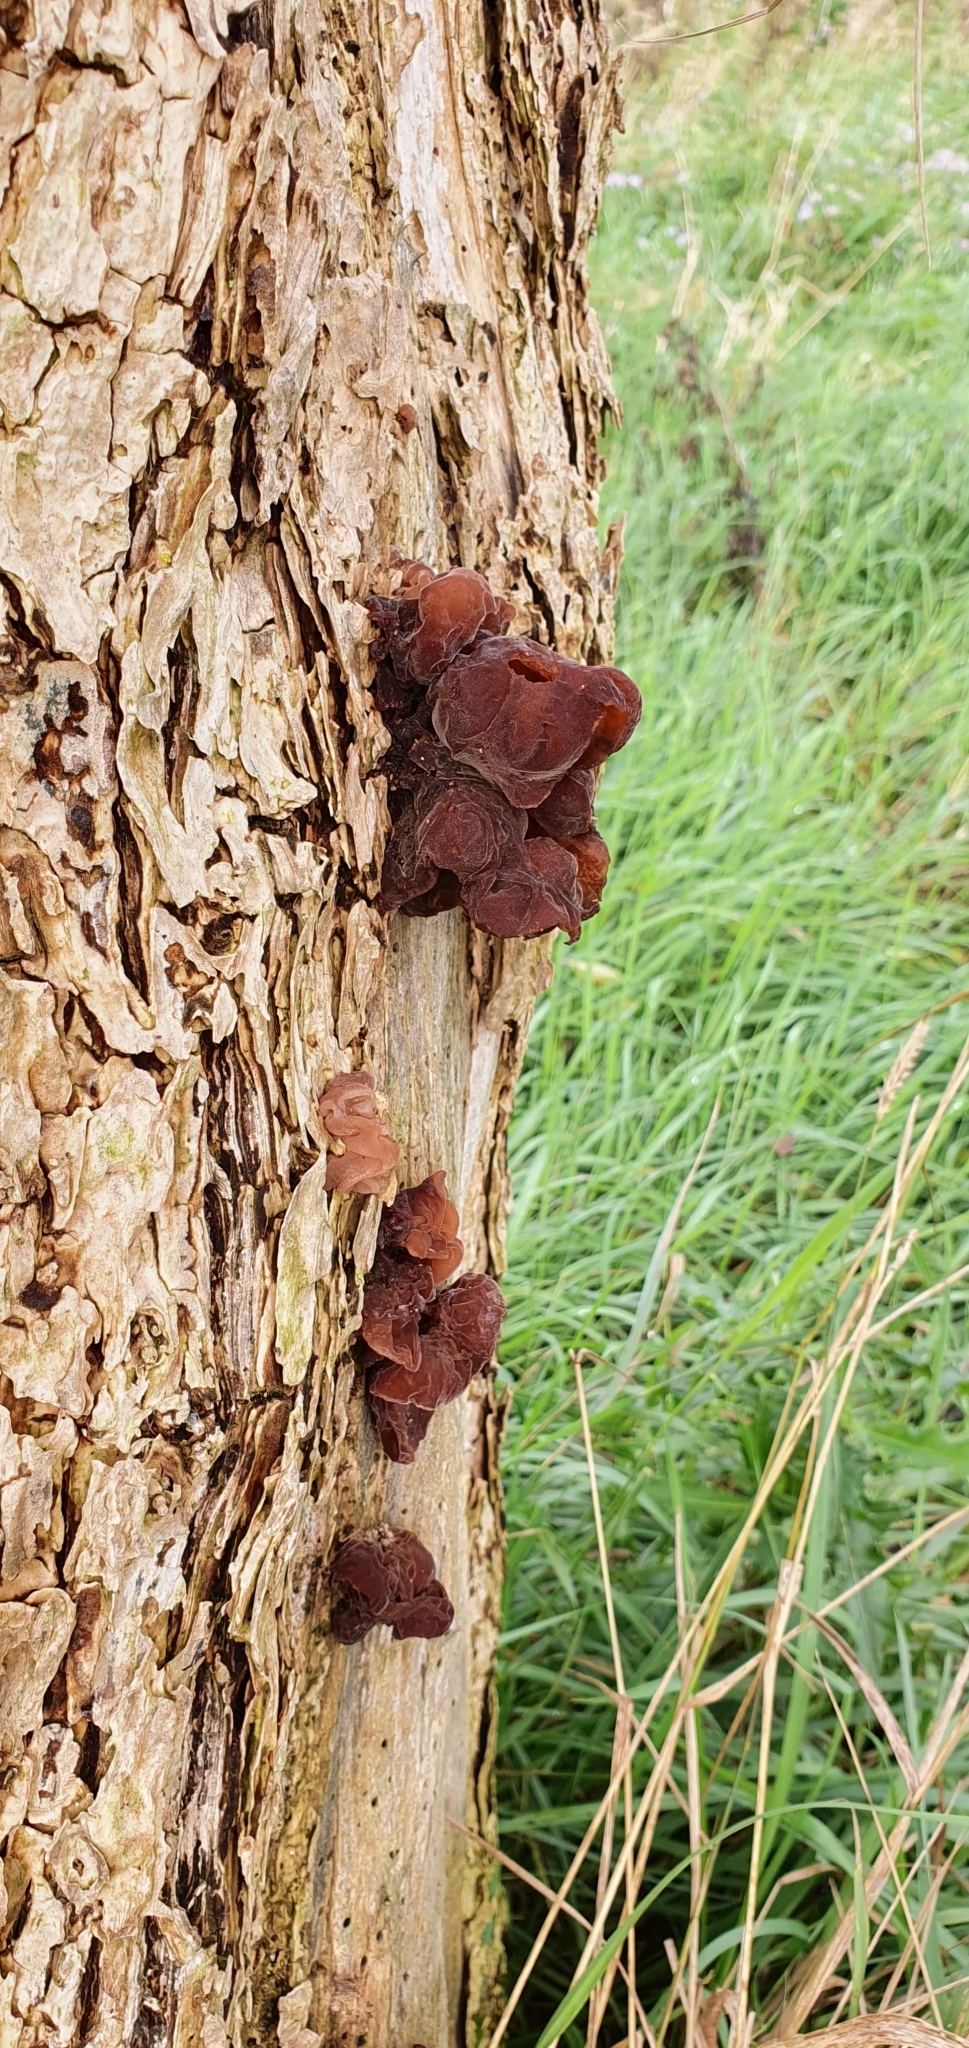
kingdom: Fungi
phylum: Basidiomycota
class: Agaricomycetes
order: Auriculariales
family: Auriculariaceae
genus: Auricularia
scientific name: Auricularia auricula-judae
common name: Jelly ear
